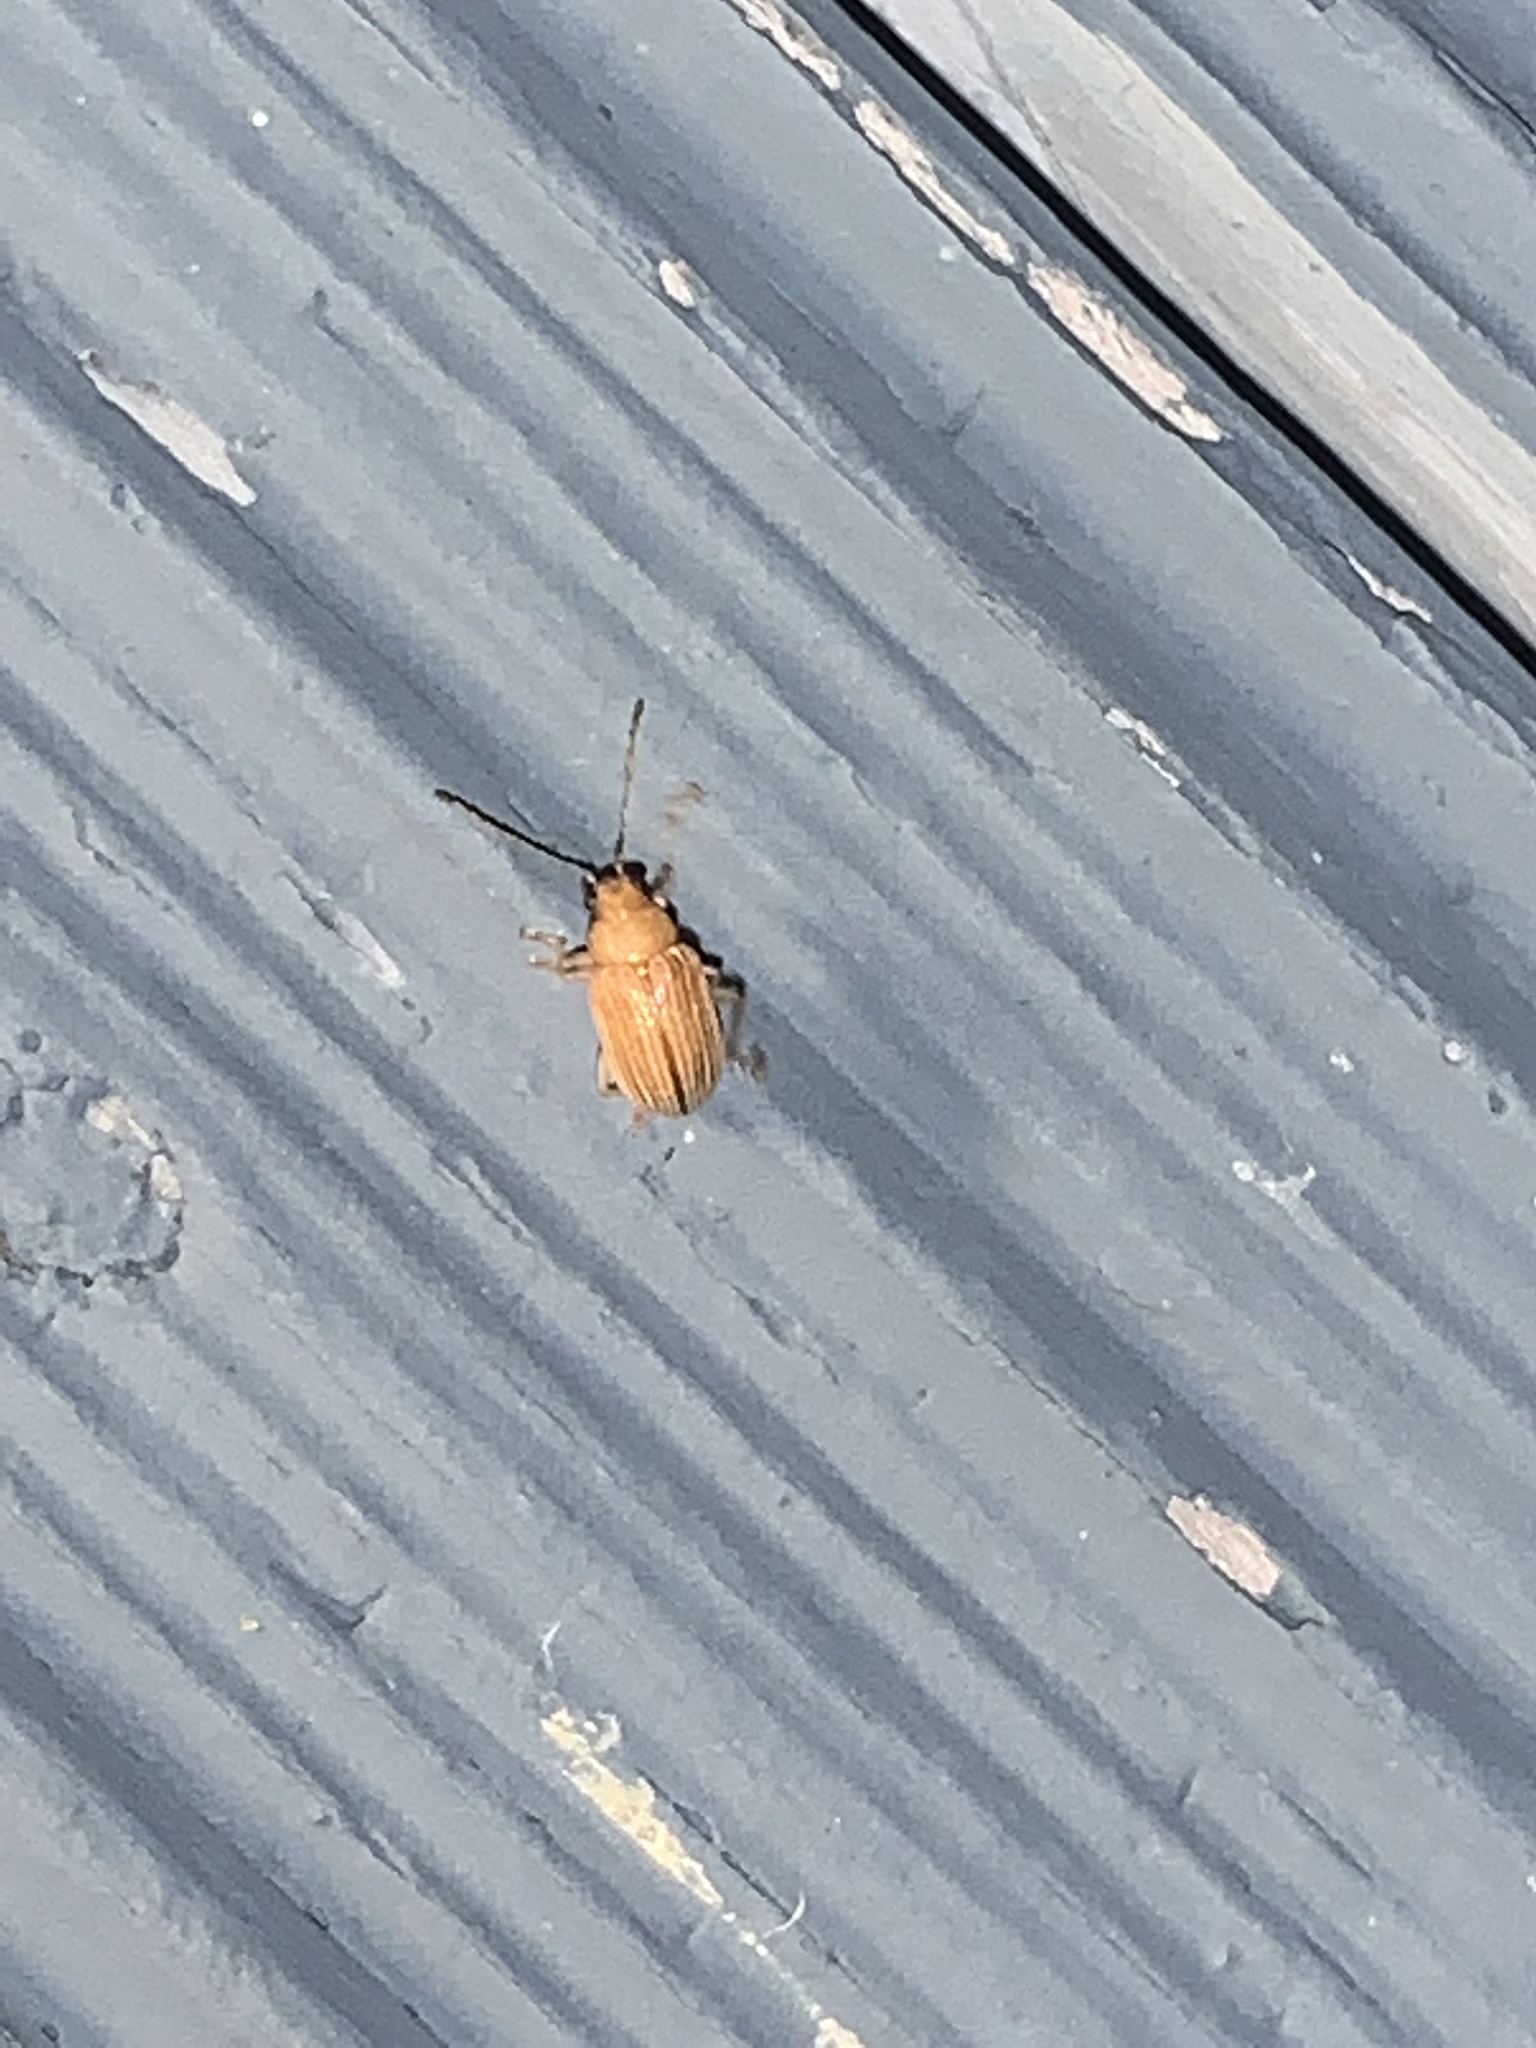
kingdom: Animalia
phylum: Arthropoda
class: Insecta
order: Coleoptera
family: Chrysomelidae
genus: Colaspis
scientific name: Colaspis brunnea
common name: Grape colaspis
